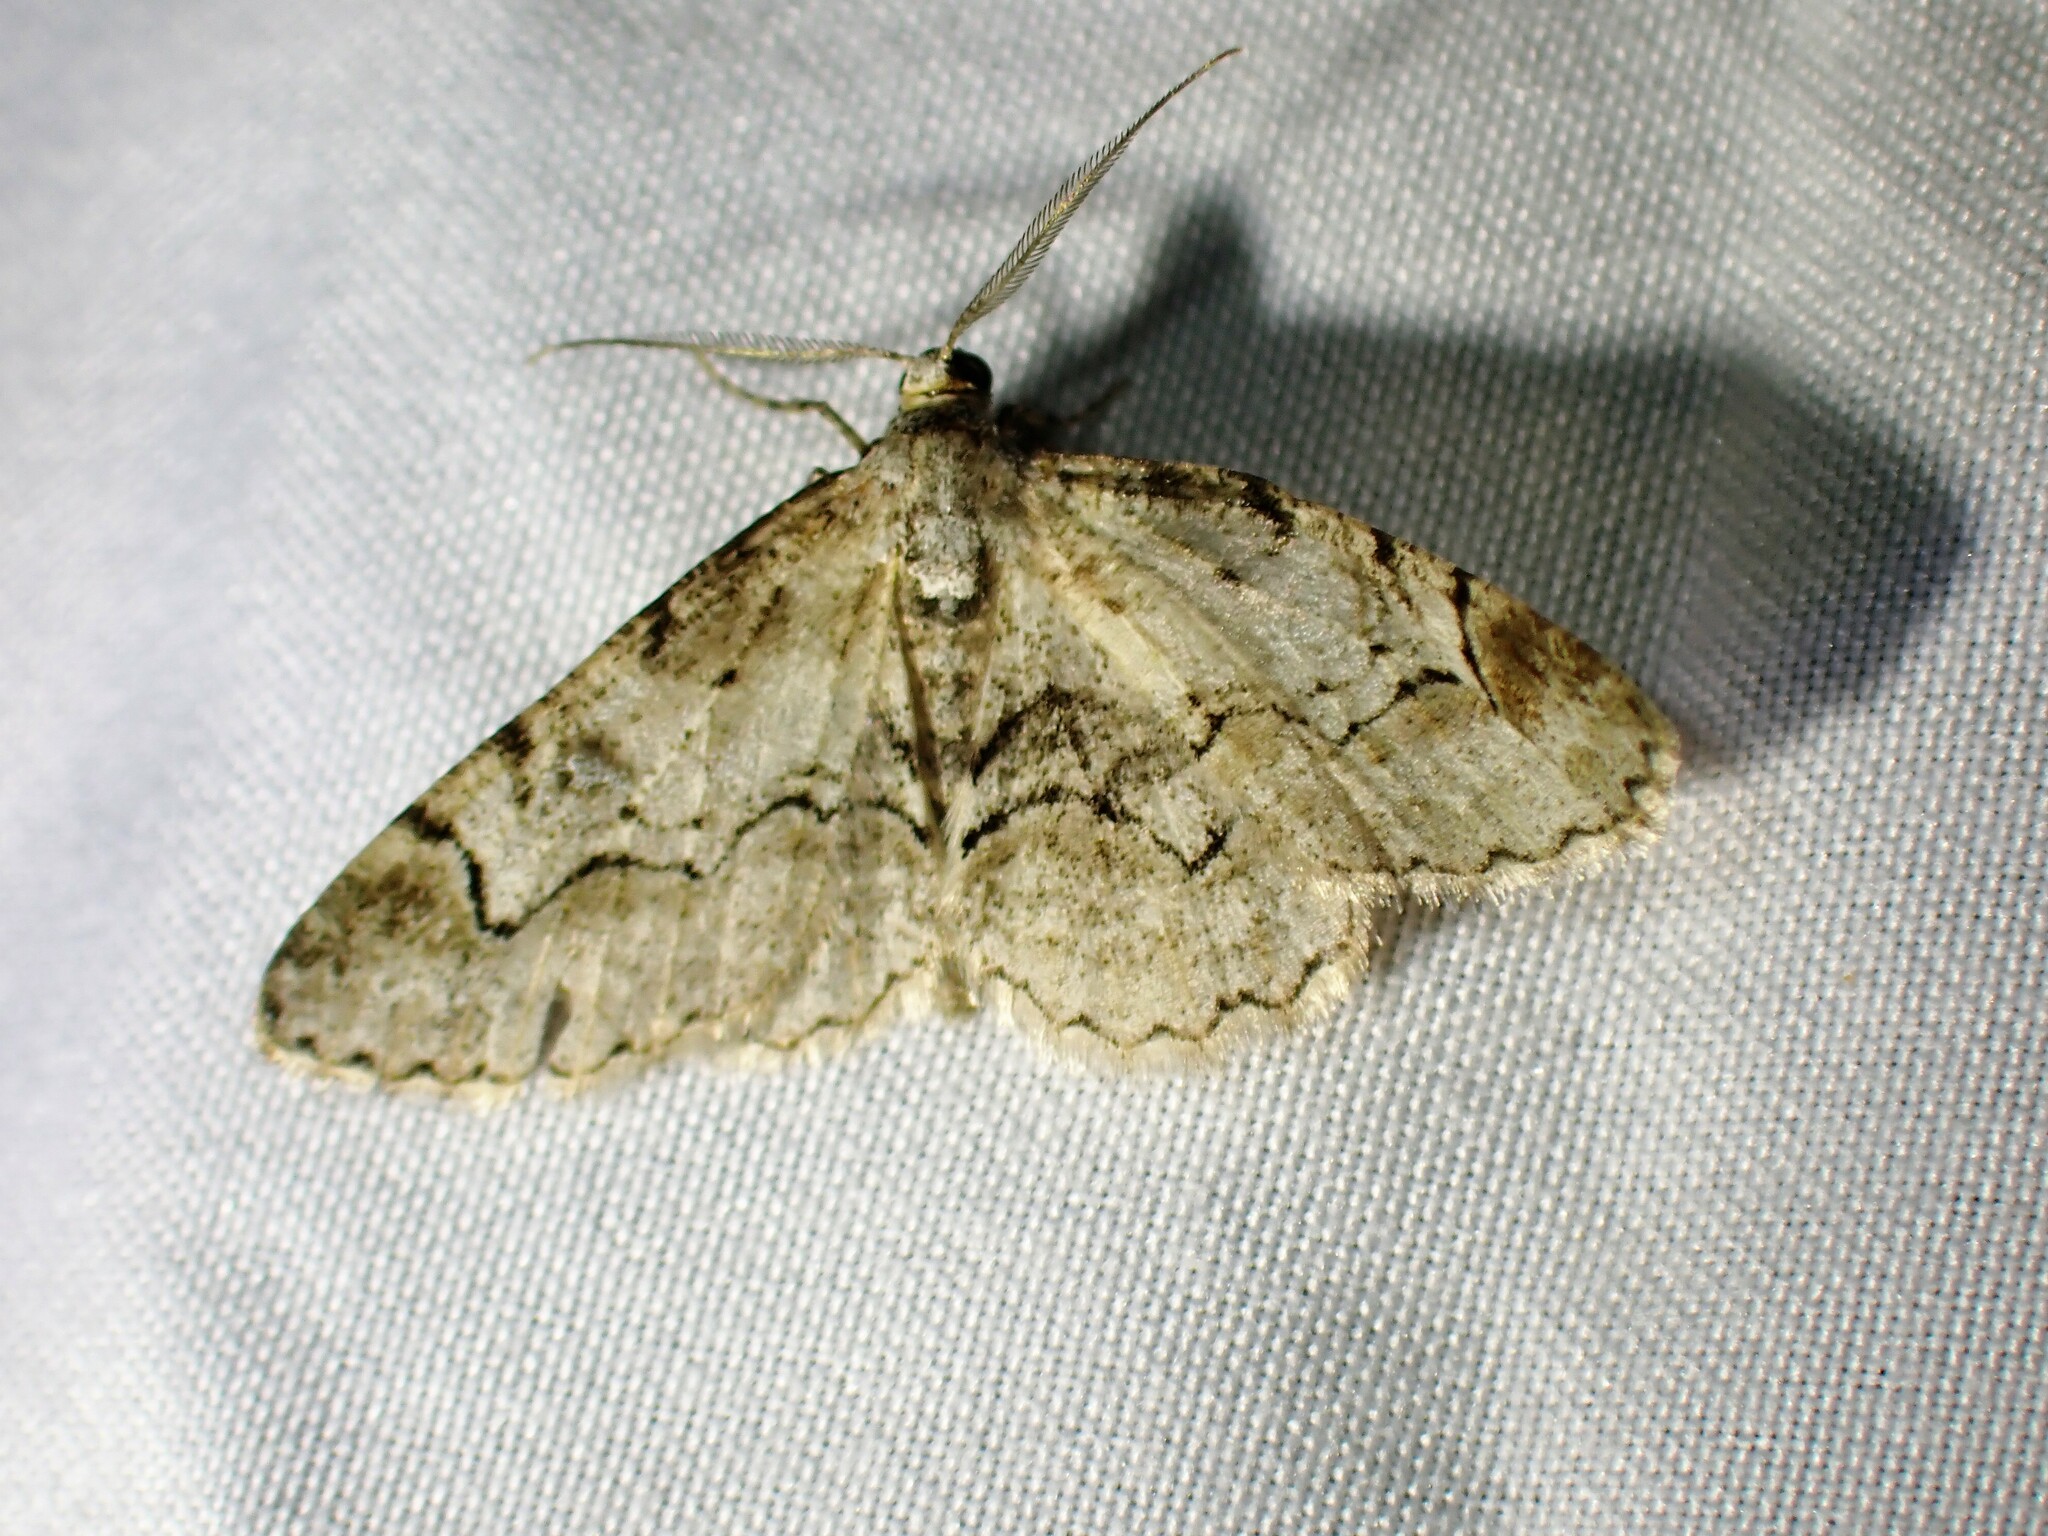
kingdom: Animalia
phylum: Arthropoda
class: Insecta
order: Lepidoptera
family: Geometridae
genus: Iridopsis
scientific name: Iridopsis larvaria
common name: Bent-line gray
